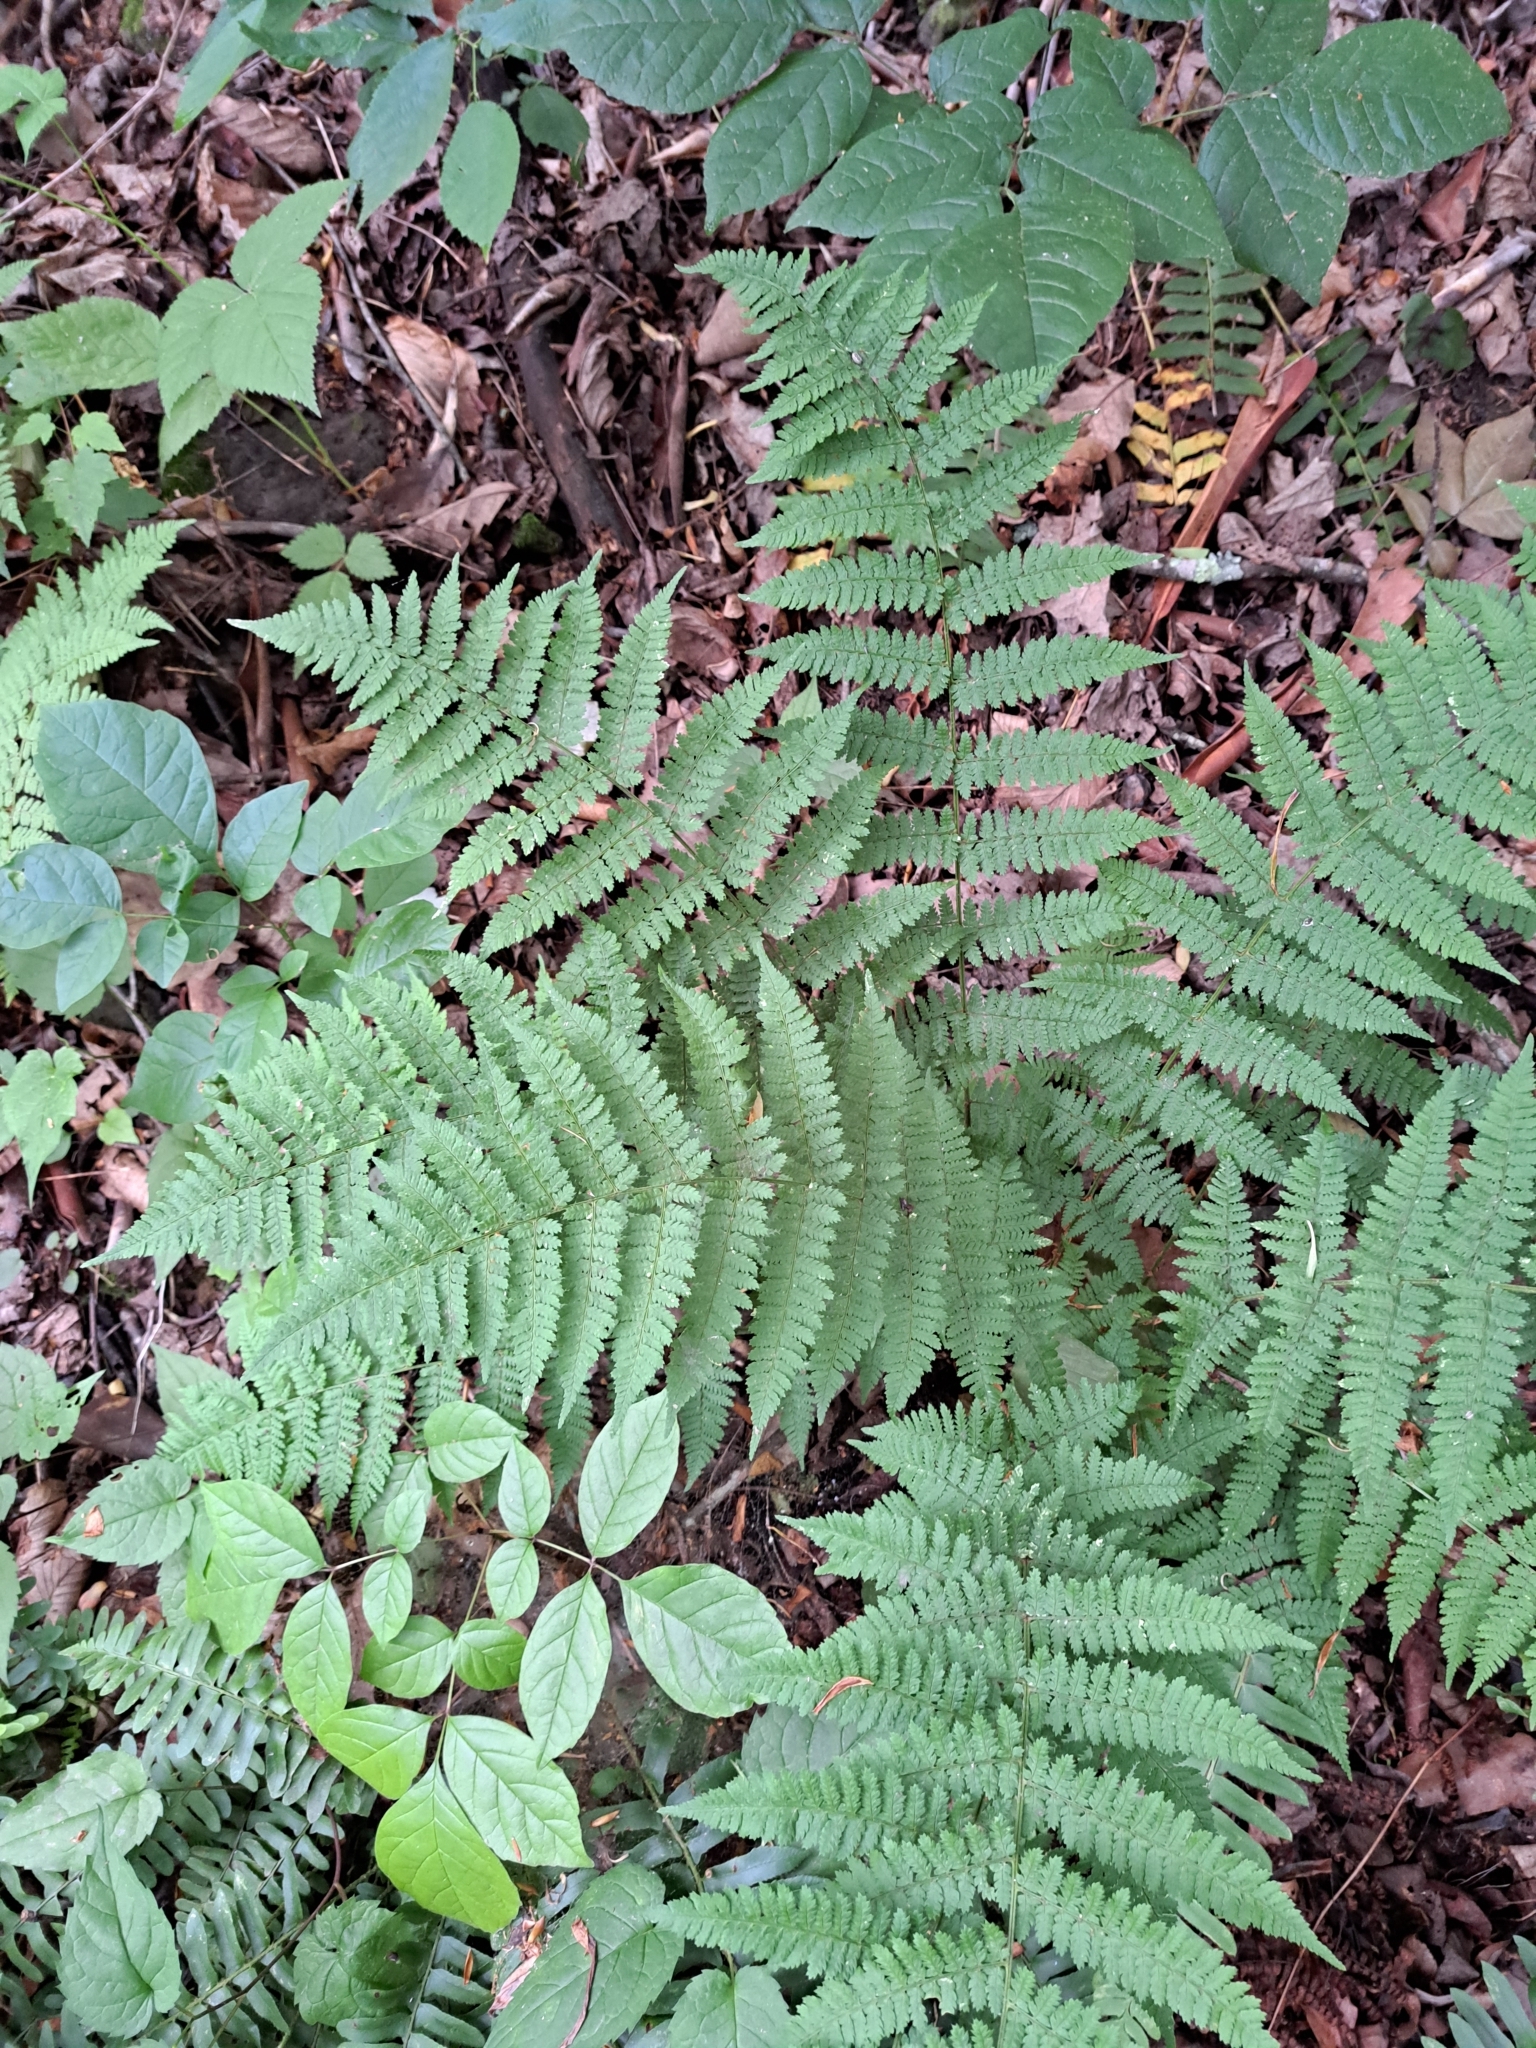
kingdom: Plantae
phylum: Tracheophyta
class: Polypodiopsida
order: Polypodiales
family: Dryopteridaceae
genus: Dryopteris
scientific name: Dryopteris intermedia
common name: Evergreen wood fern
